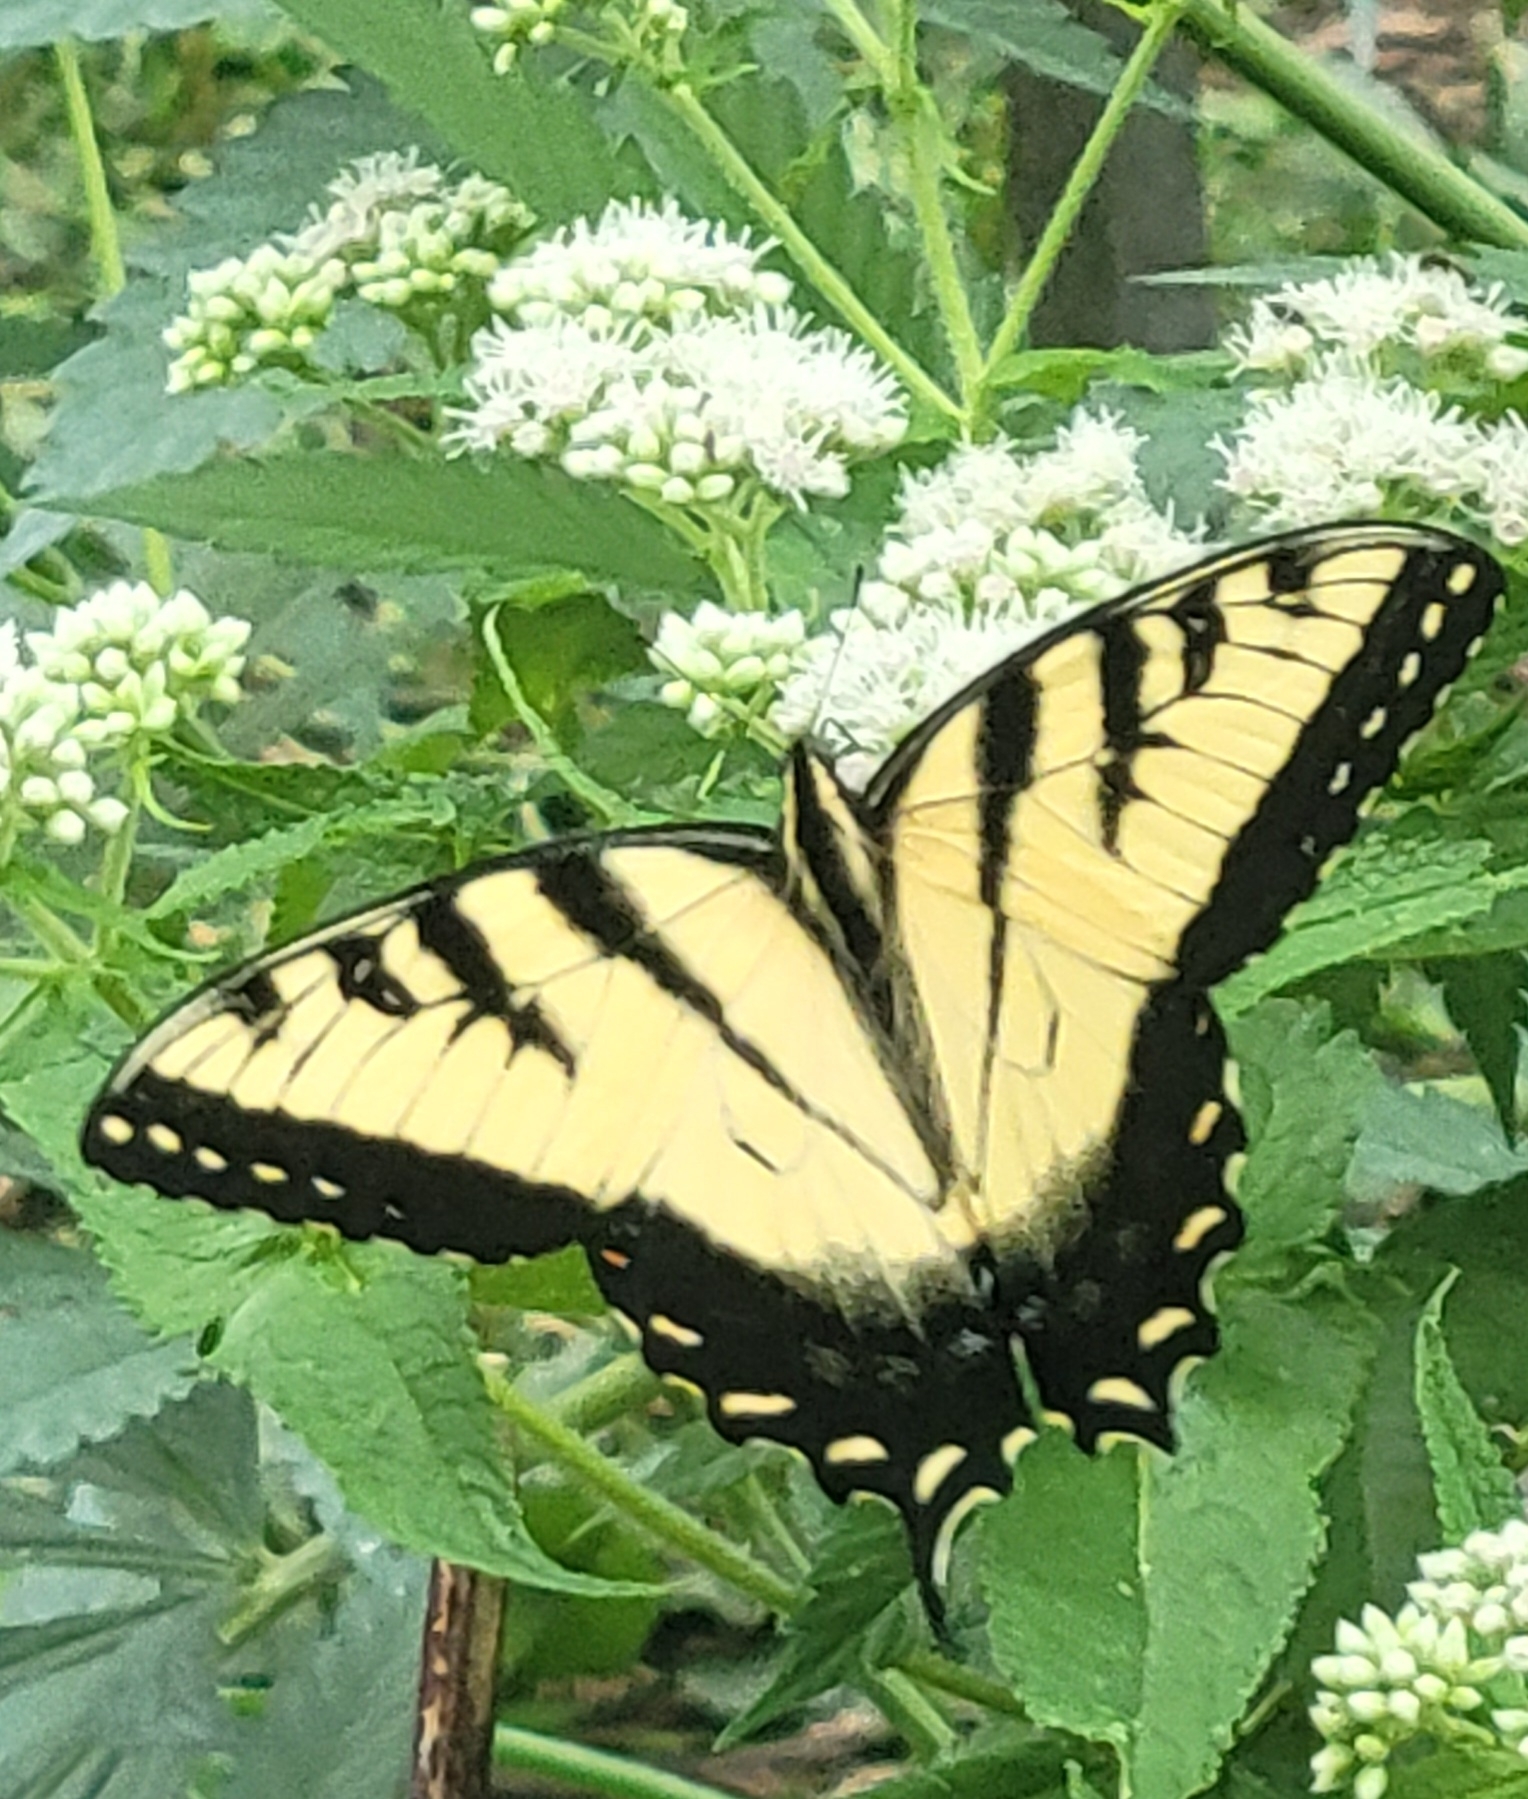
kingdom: Animalia
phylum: Arthropoda
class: Insecta
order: Lepidoptera
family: Papilionidae
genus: Papilio
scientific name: Papilio glaucus
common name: Tiger swallowtail
